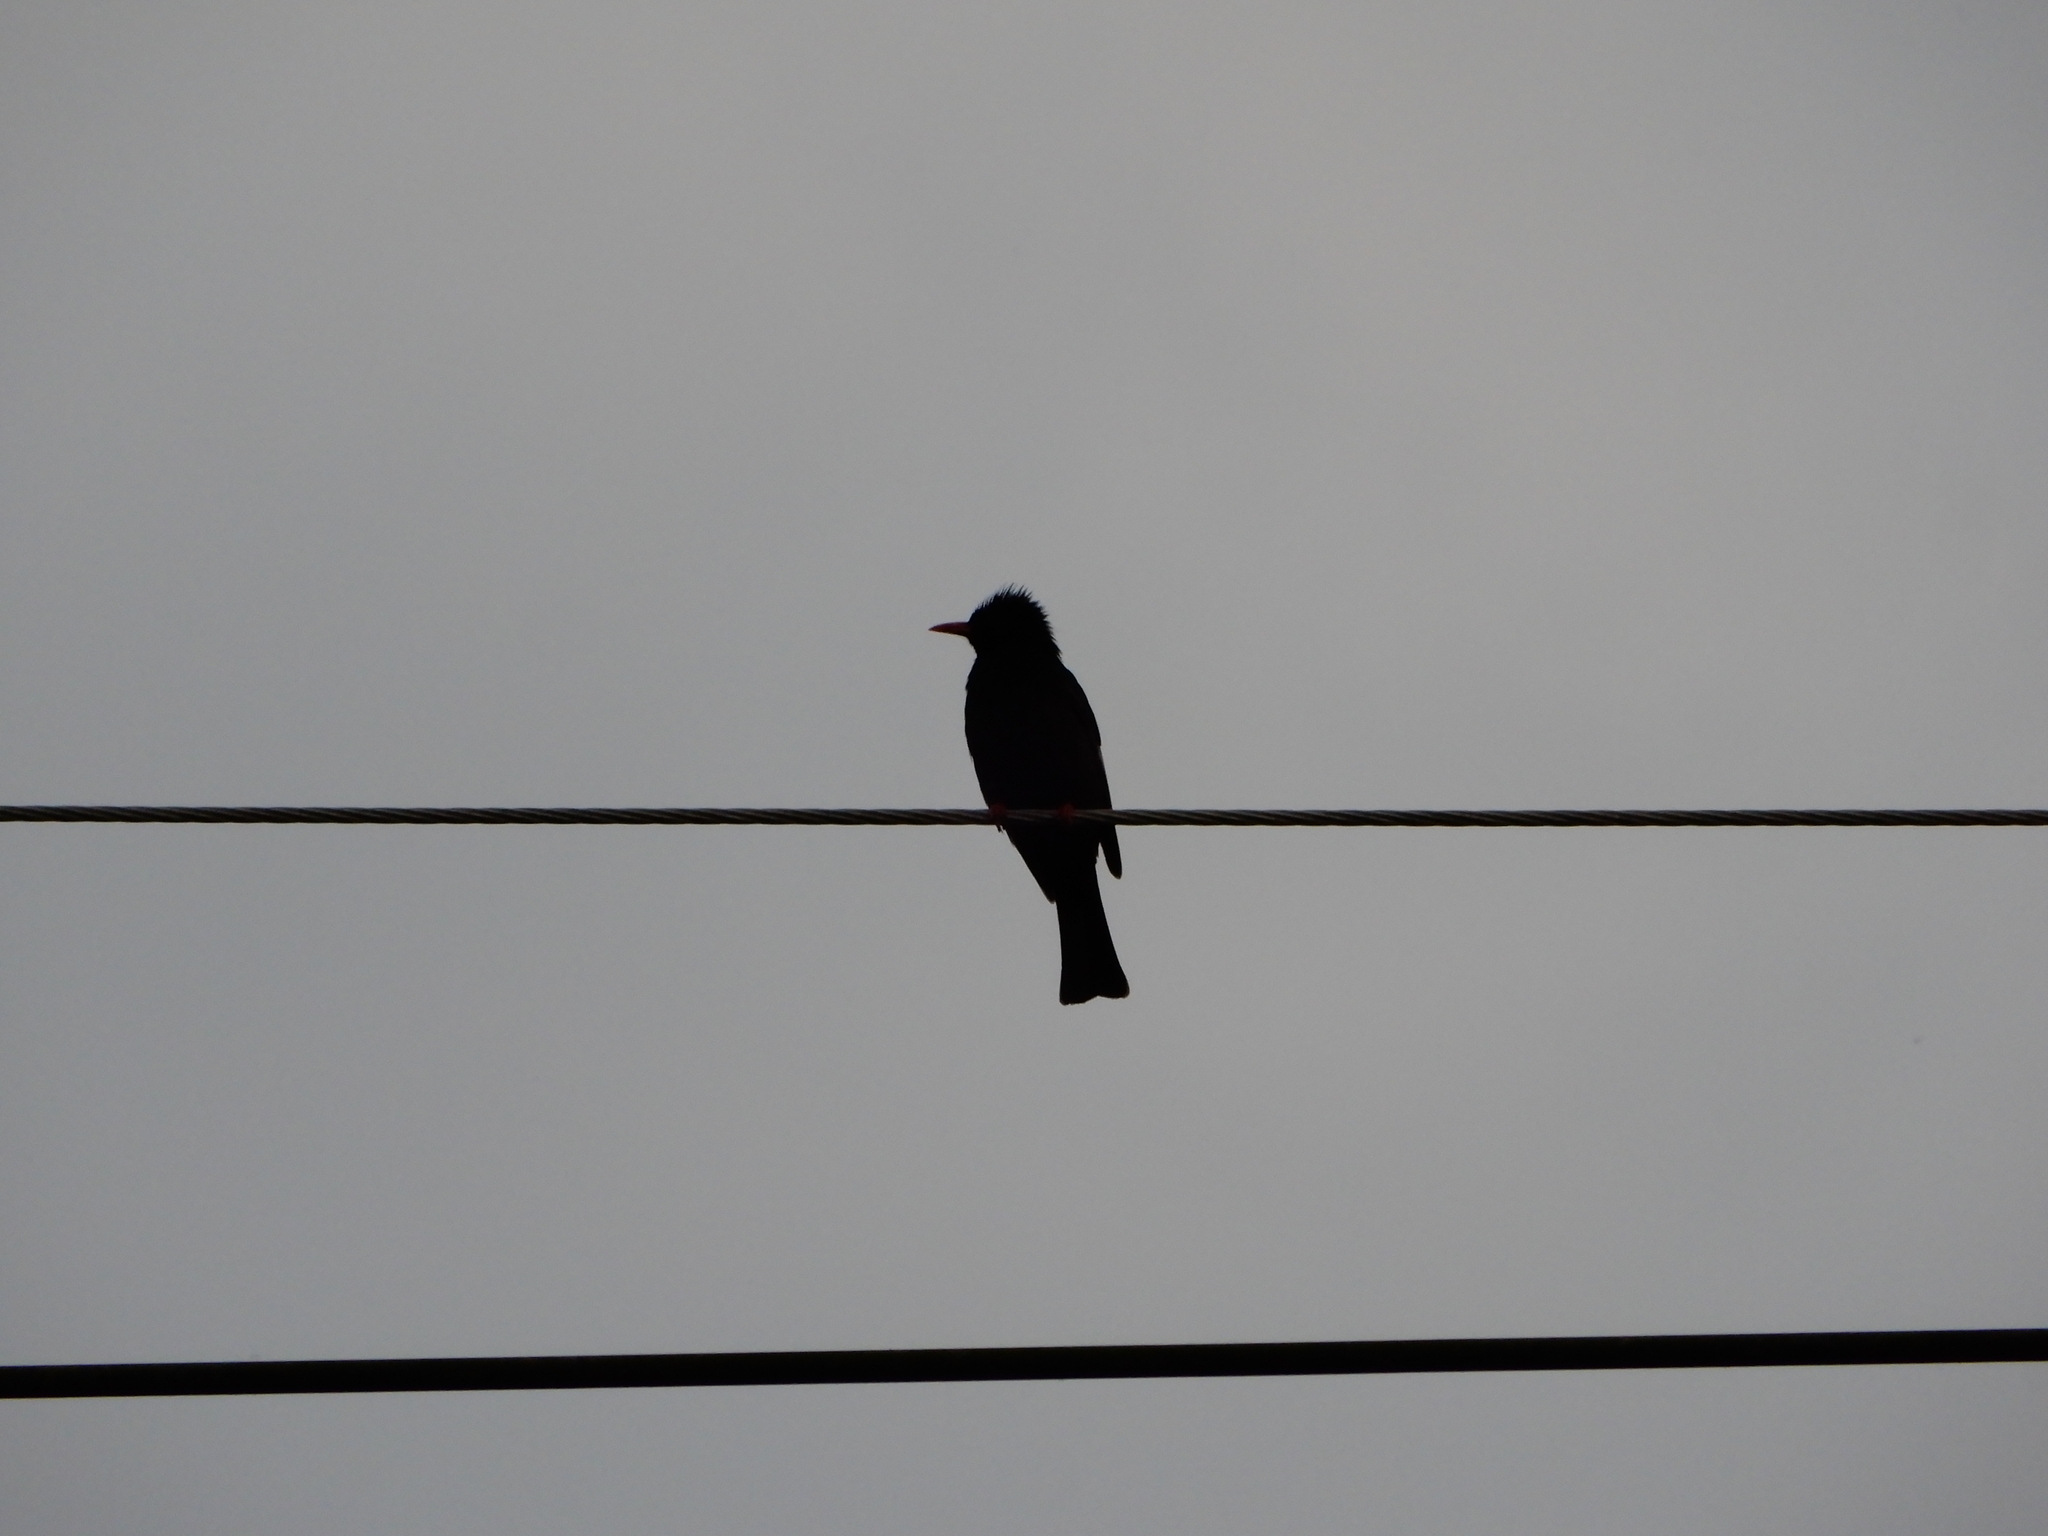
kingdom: Animalia
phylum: Chordata
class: Aves
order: Passeriformes
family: Pycnonotidae
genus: Hypsipetes
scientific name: Hypsipetes leucocephalus
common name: Black bulbul
